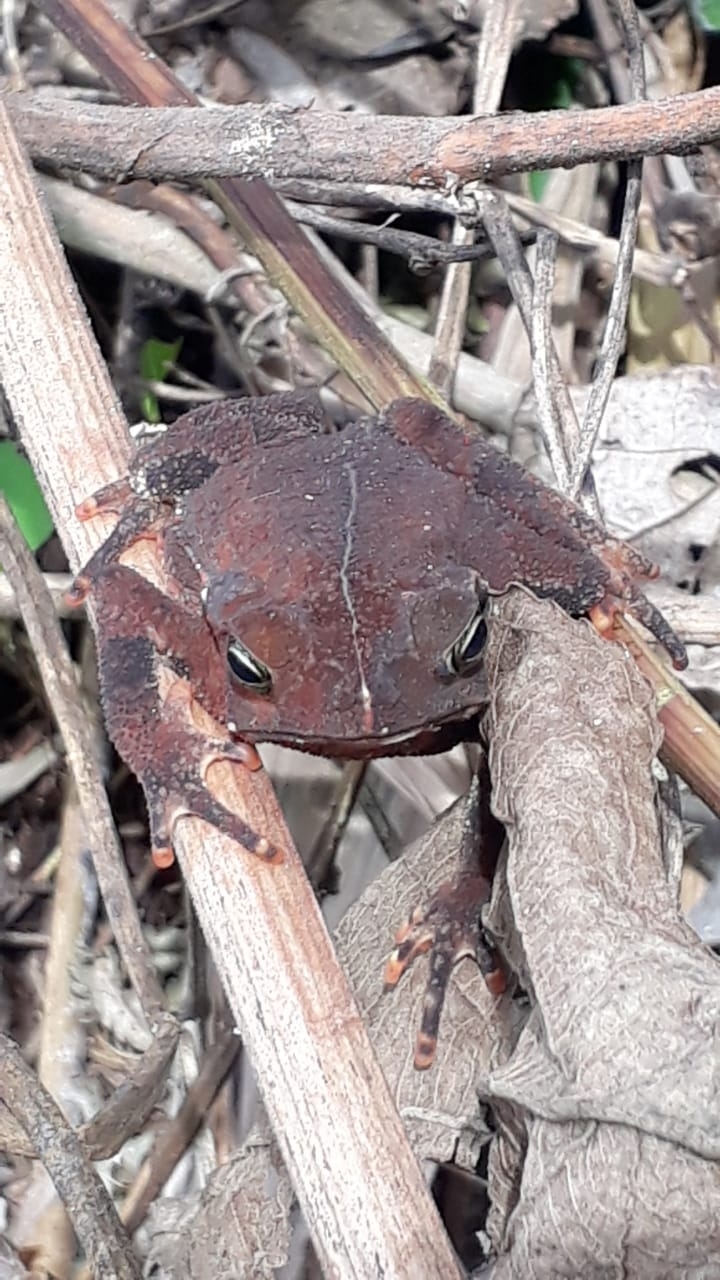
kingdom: Animalia
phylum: Chordata
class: Amphibia
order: Anura
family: Bufonidae
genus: Rhinella
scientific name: Rhinella alata
